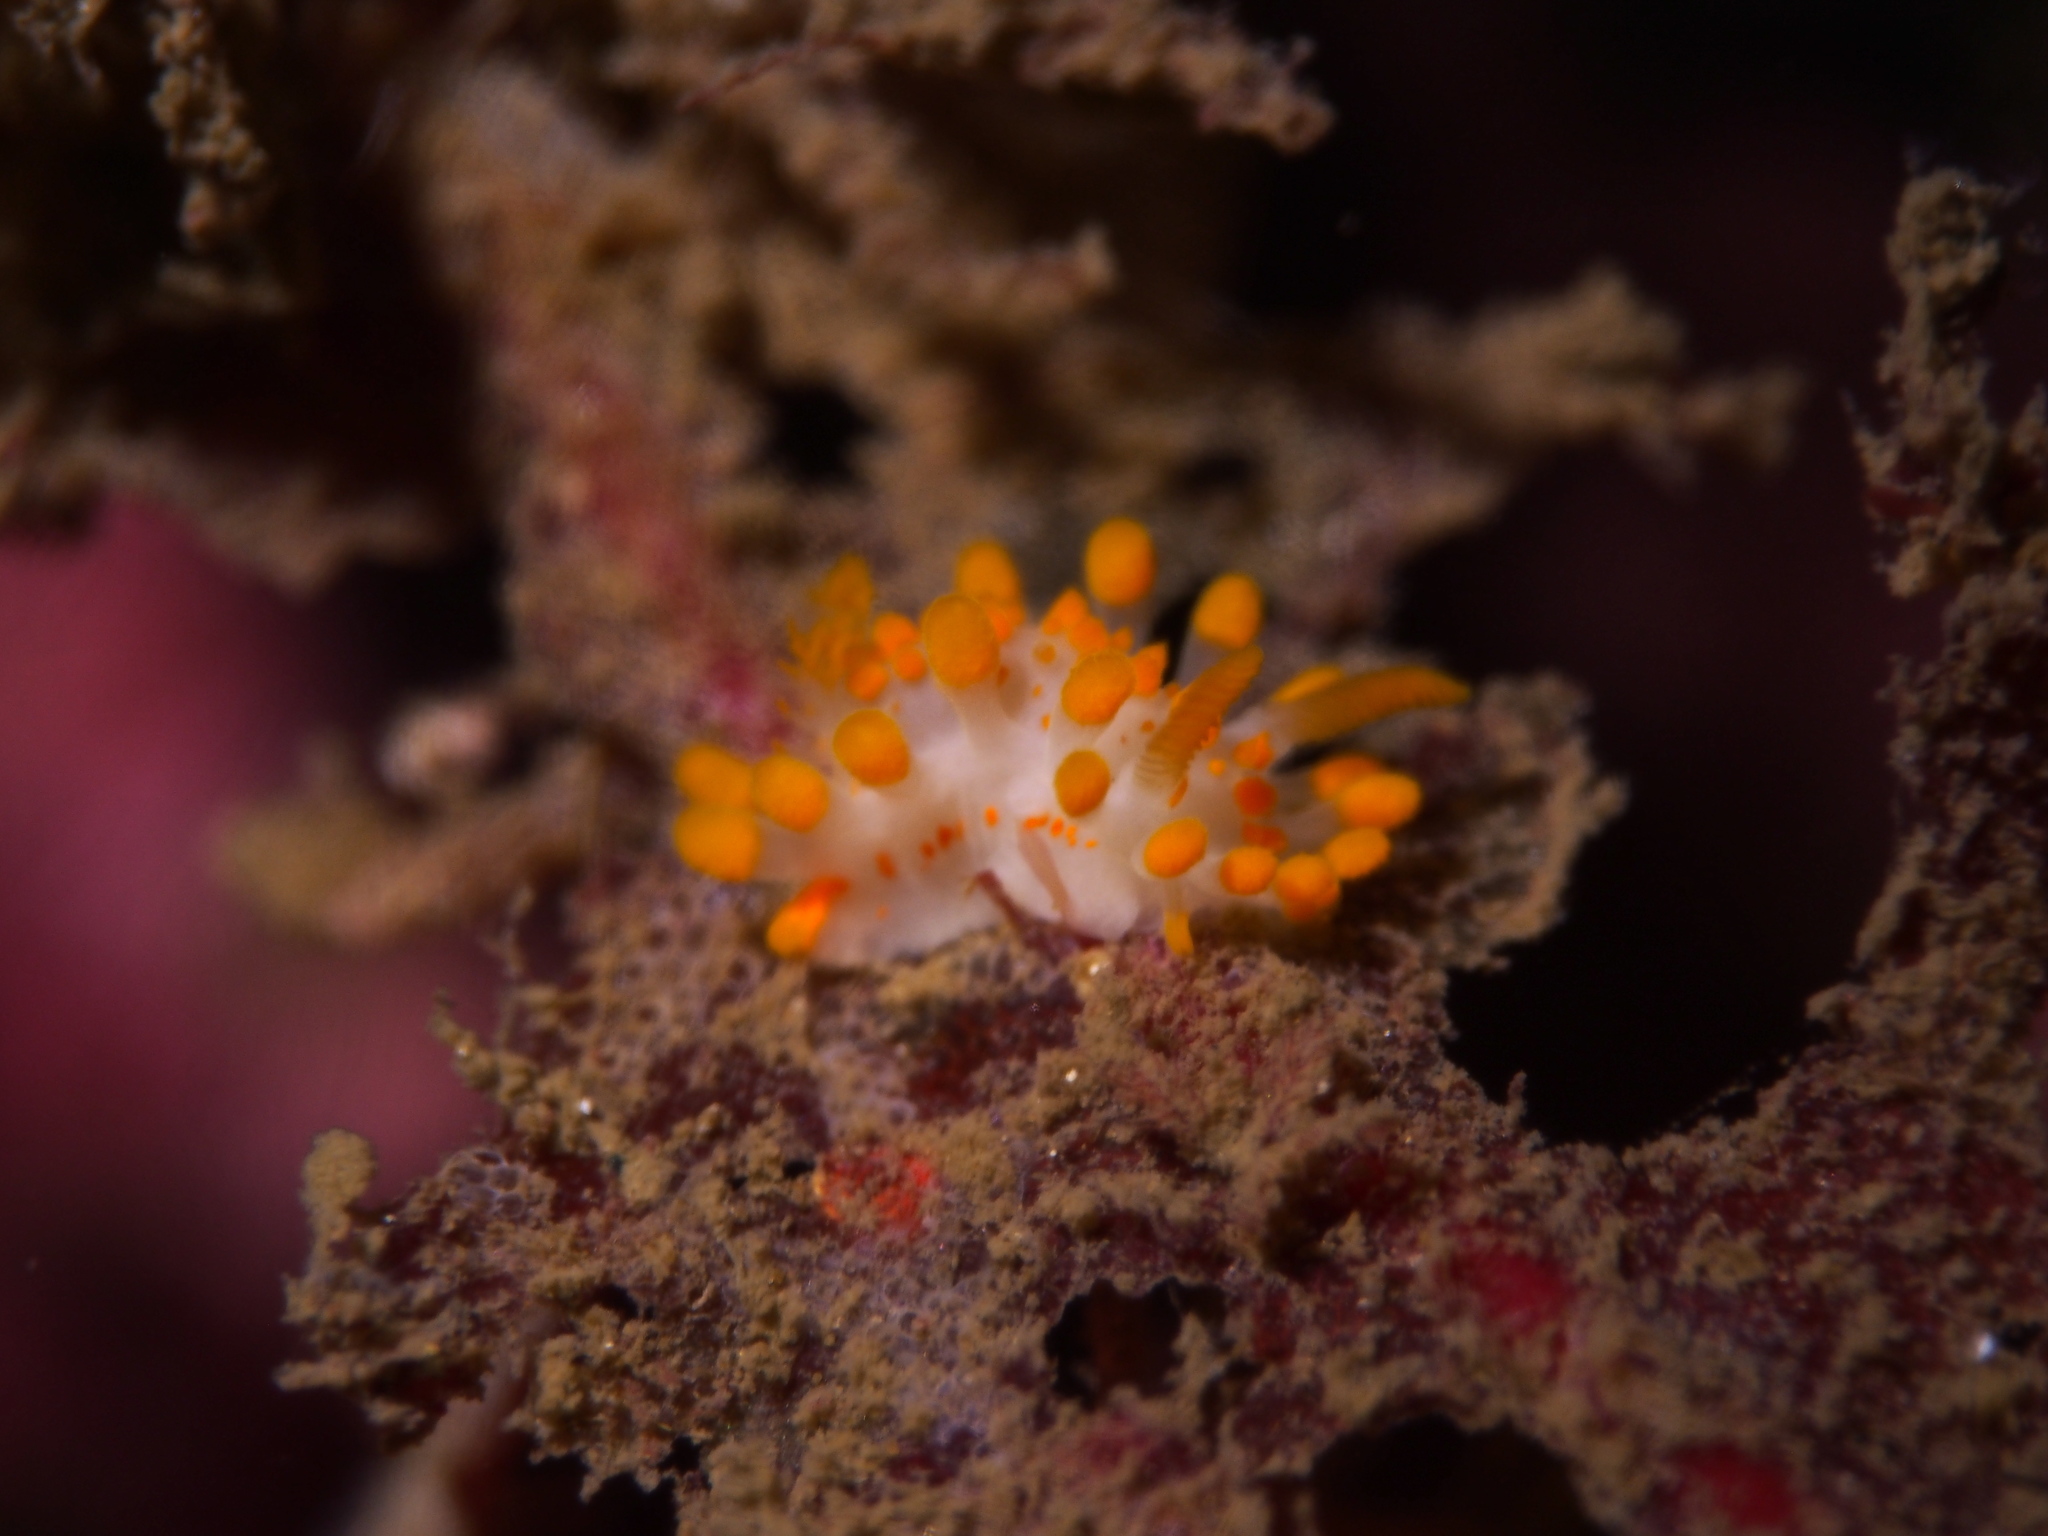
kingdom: Animalia
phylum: Mollusca
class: Gastropoda
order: Nudibranchia
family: Polyceridae
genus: Limacia
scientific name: Limacia clavigera
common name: Orange-clubbed sea slug
